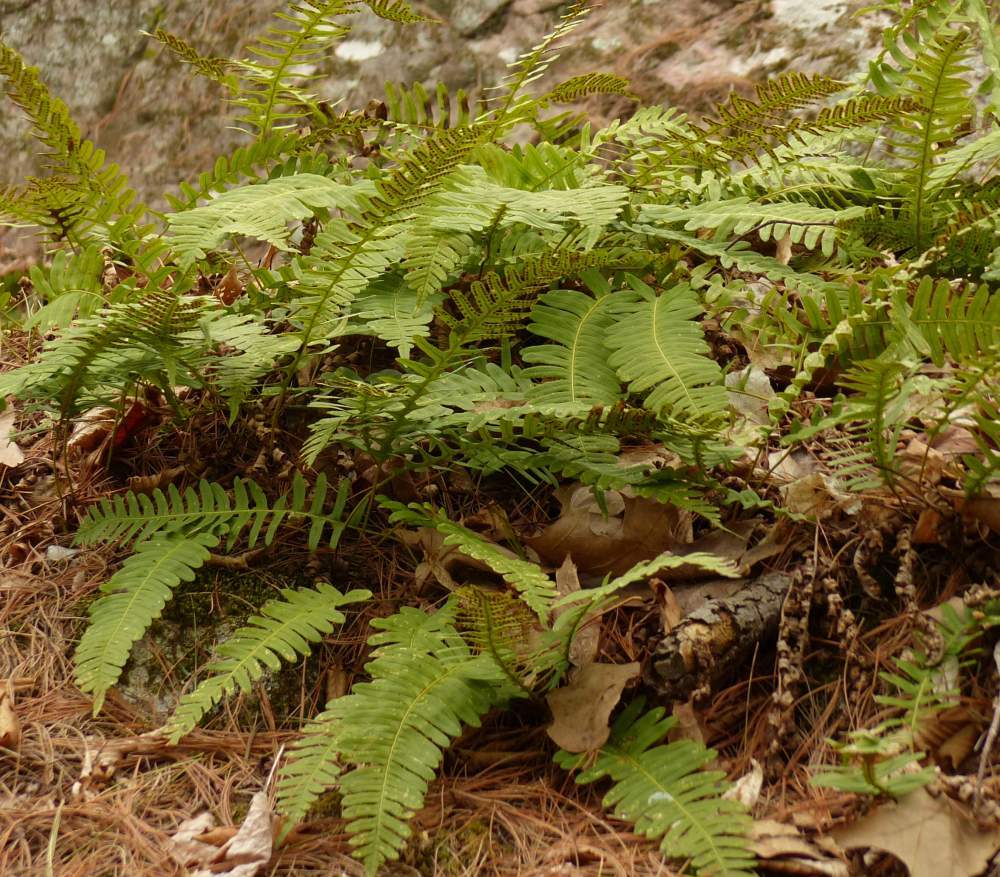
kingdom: Plantae
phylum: Tracheophyta
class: Polypodiopsida
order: Polypodiales
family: Polypodiaceae
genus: Polypodium
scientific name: Polypodium virginianum
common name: American wall fern
